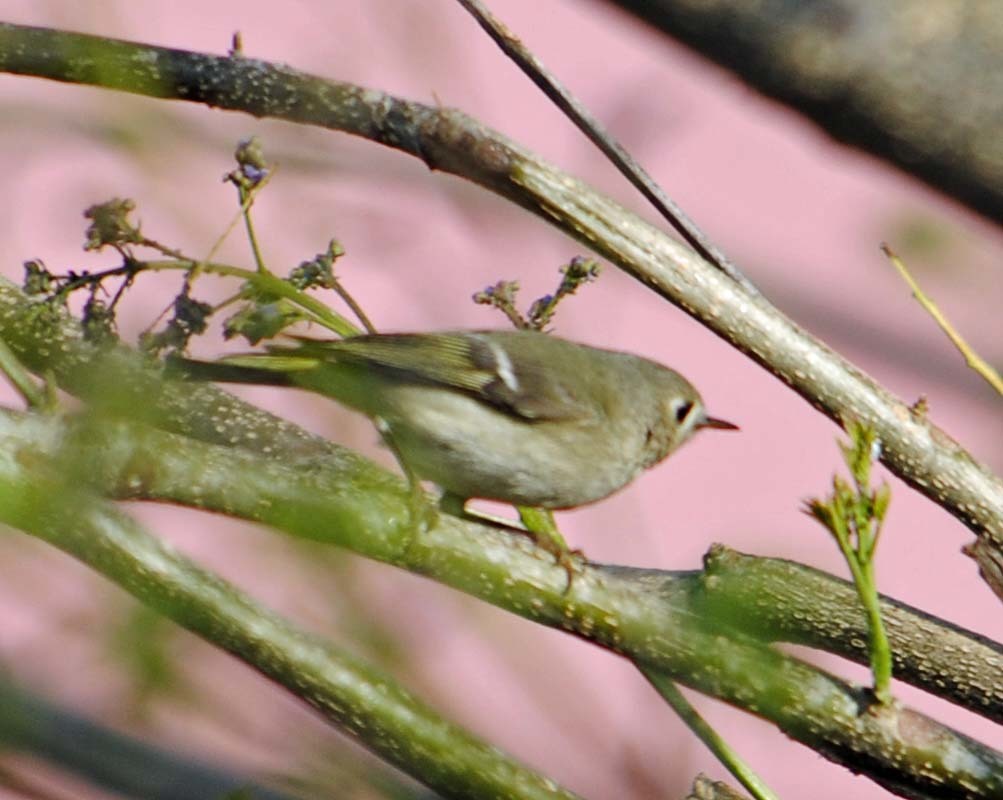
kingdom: Animalia
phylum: Chordata
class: Aves
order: Passeriformes
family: Regulidae
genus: Regulus
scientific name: Regulus calendula
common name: Ruby-crowned kinglet
